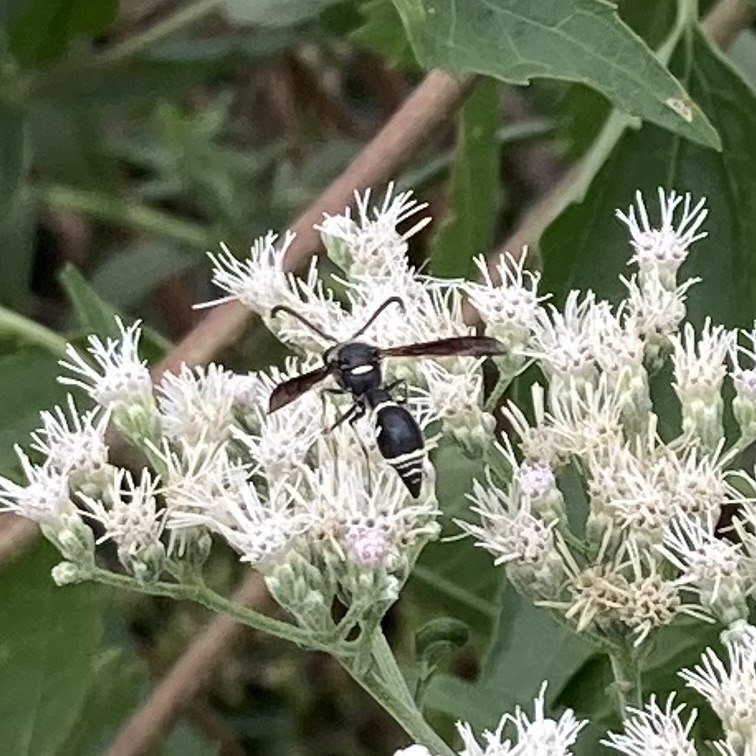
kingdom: Animalia
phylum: Arthropoda
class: Insecta
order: Hymenoptera
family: Vespidae
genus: Eumenes
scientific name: Eumenes fraternus
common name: Fraternal potter wasp
